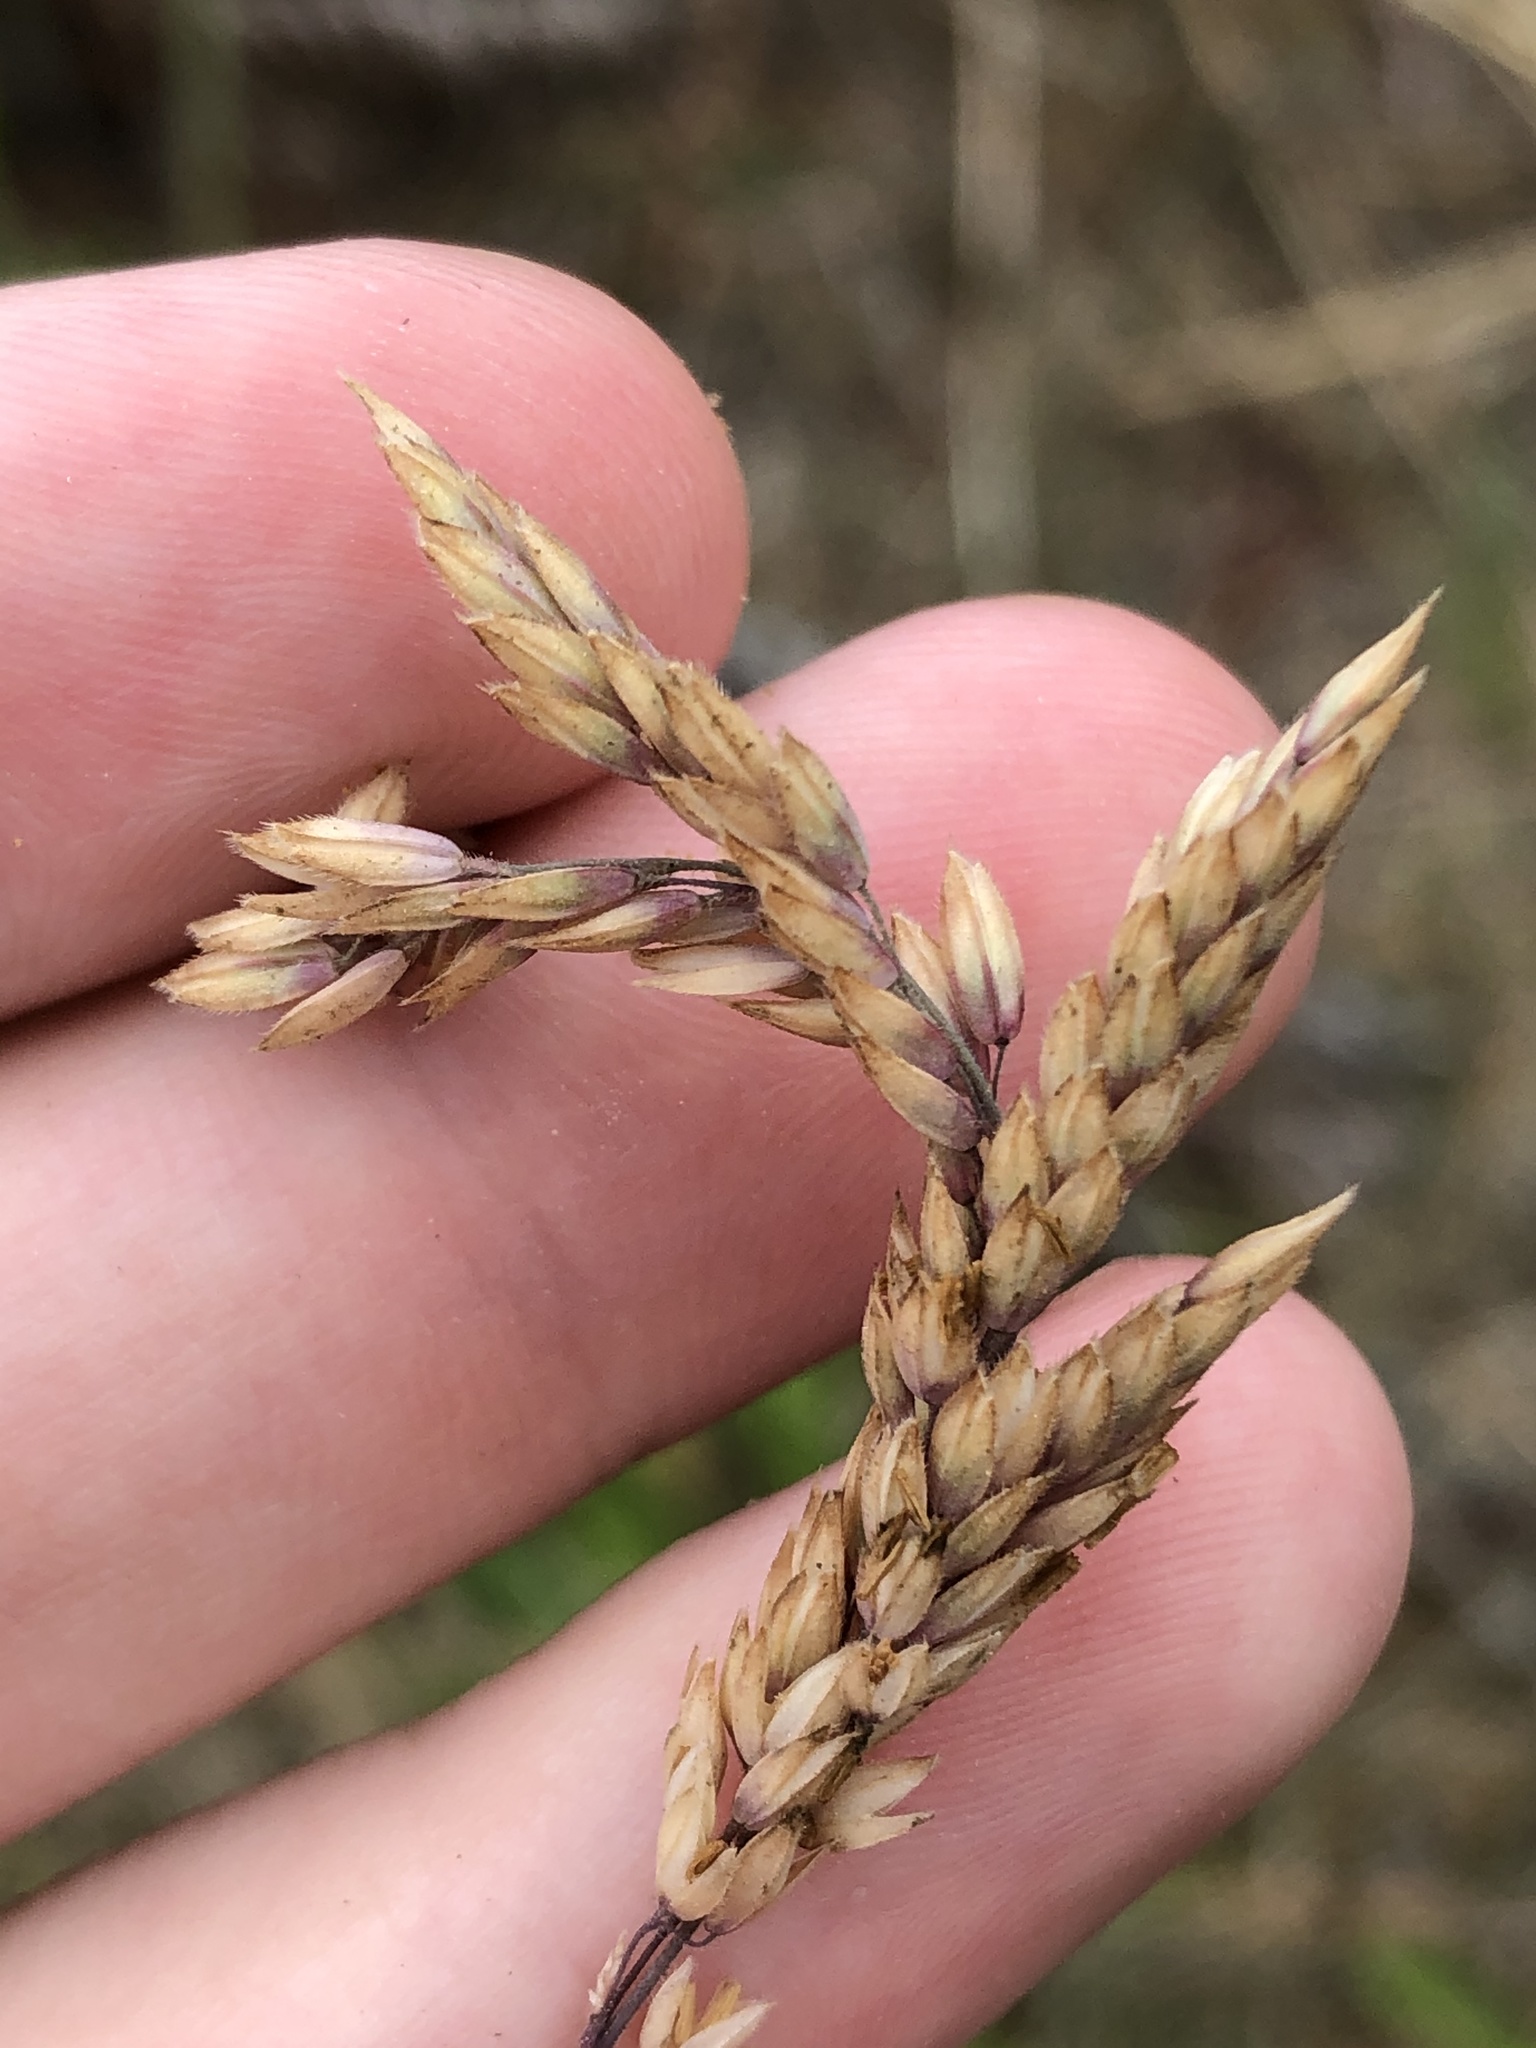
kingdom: Plantae
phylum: Tracheophyta
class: Liliopsida
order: Poales
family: Poaceae
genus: Holcus
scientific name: Holcus lanatus
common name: Yorkshire-fog
